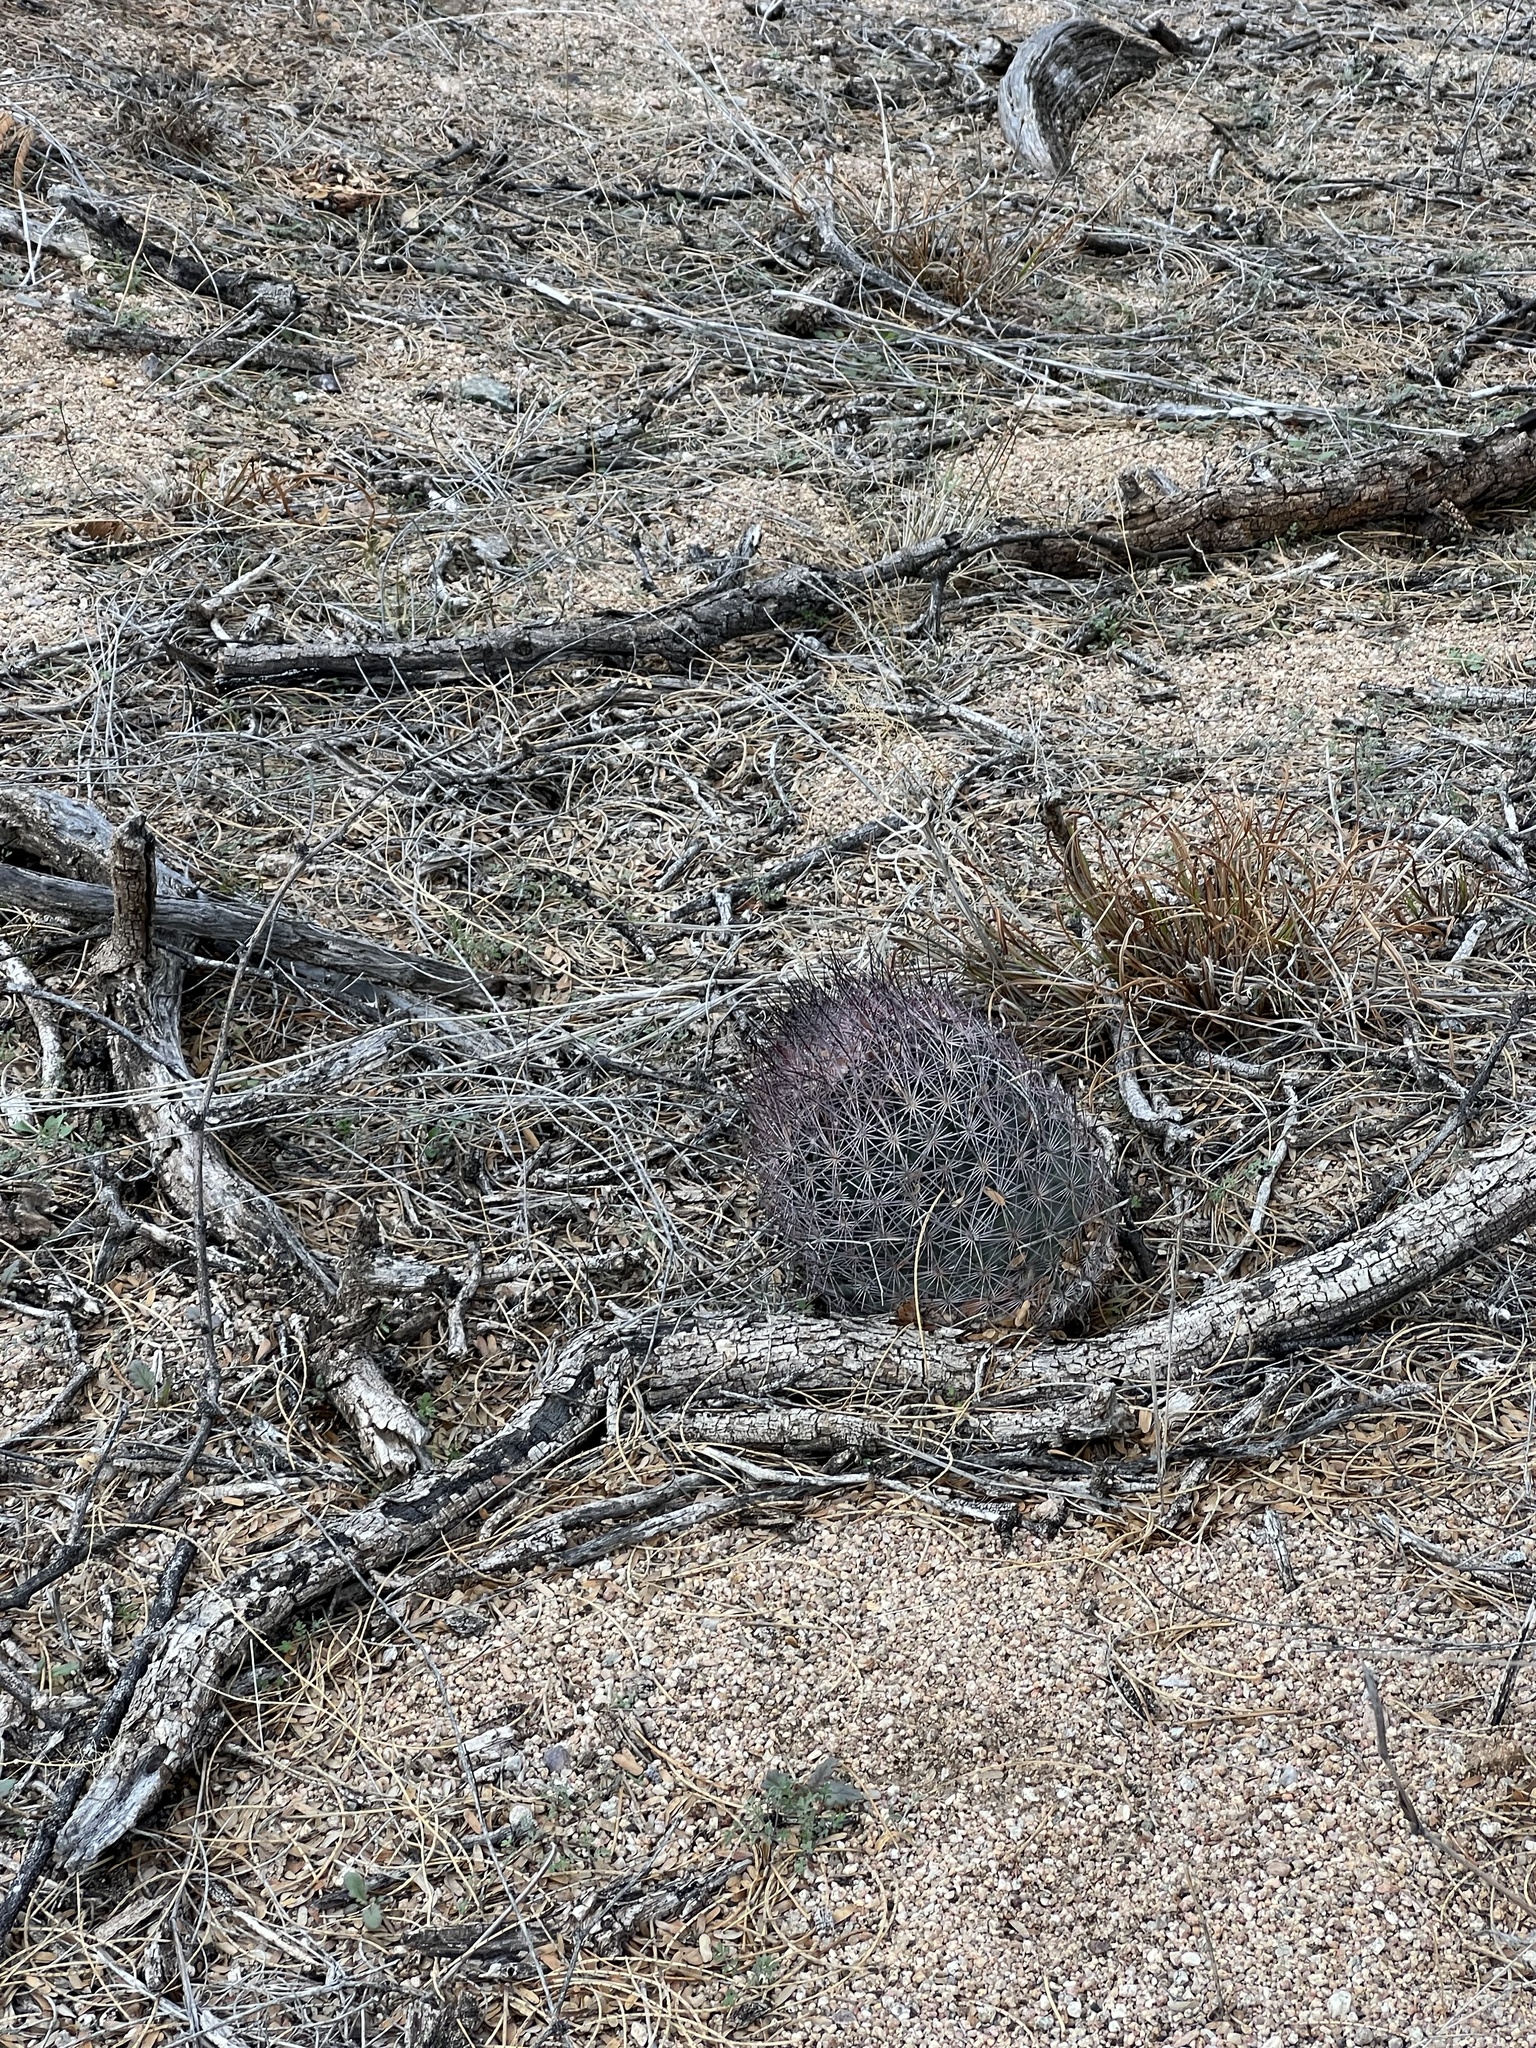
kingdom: Plantae
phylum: Tracheophyta
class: Magnoliopsida
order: Caryophyllales
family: Cactaceae
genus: Sclerocactus
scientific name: Sclerocactus johnsonii
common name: Eight-spine fishhook cactus
